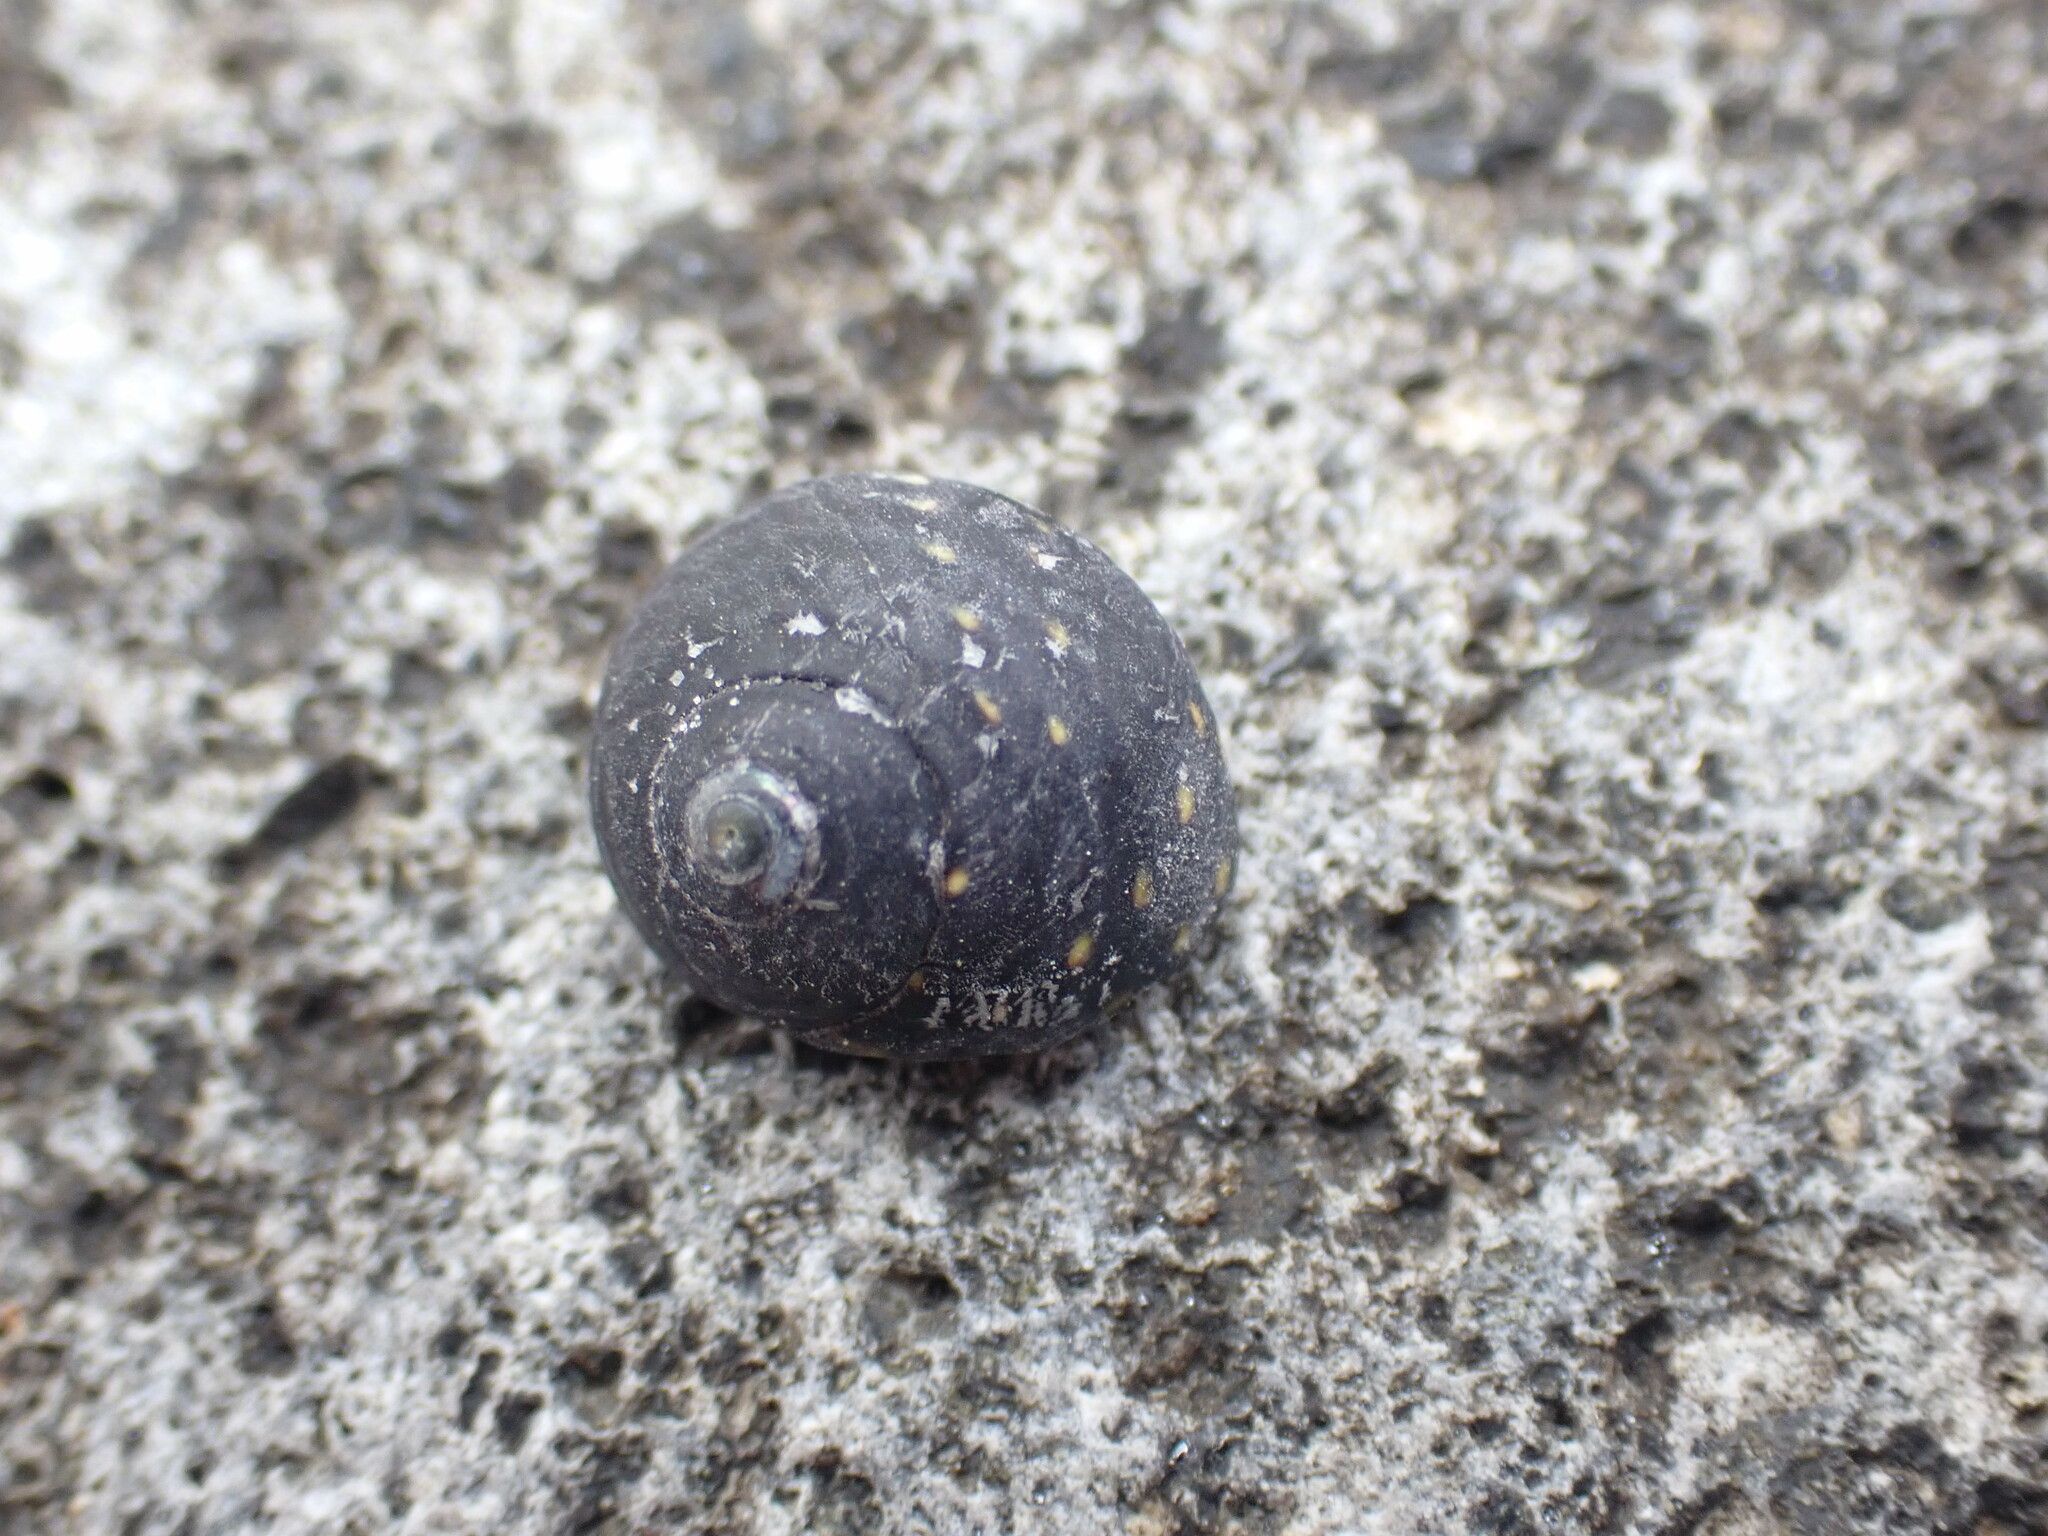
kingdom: Animalia
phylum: Mollusca
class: Gastropoda
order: Trochida
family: Trochidae
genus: Diloma
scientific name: Diloma aridum
